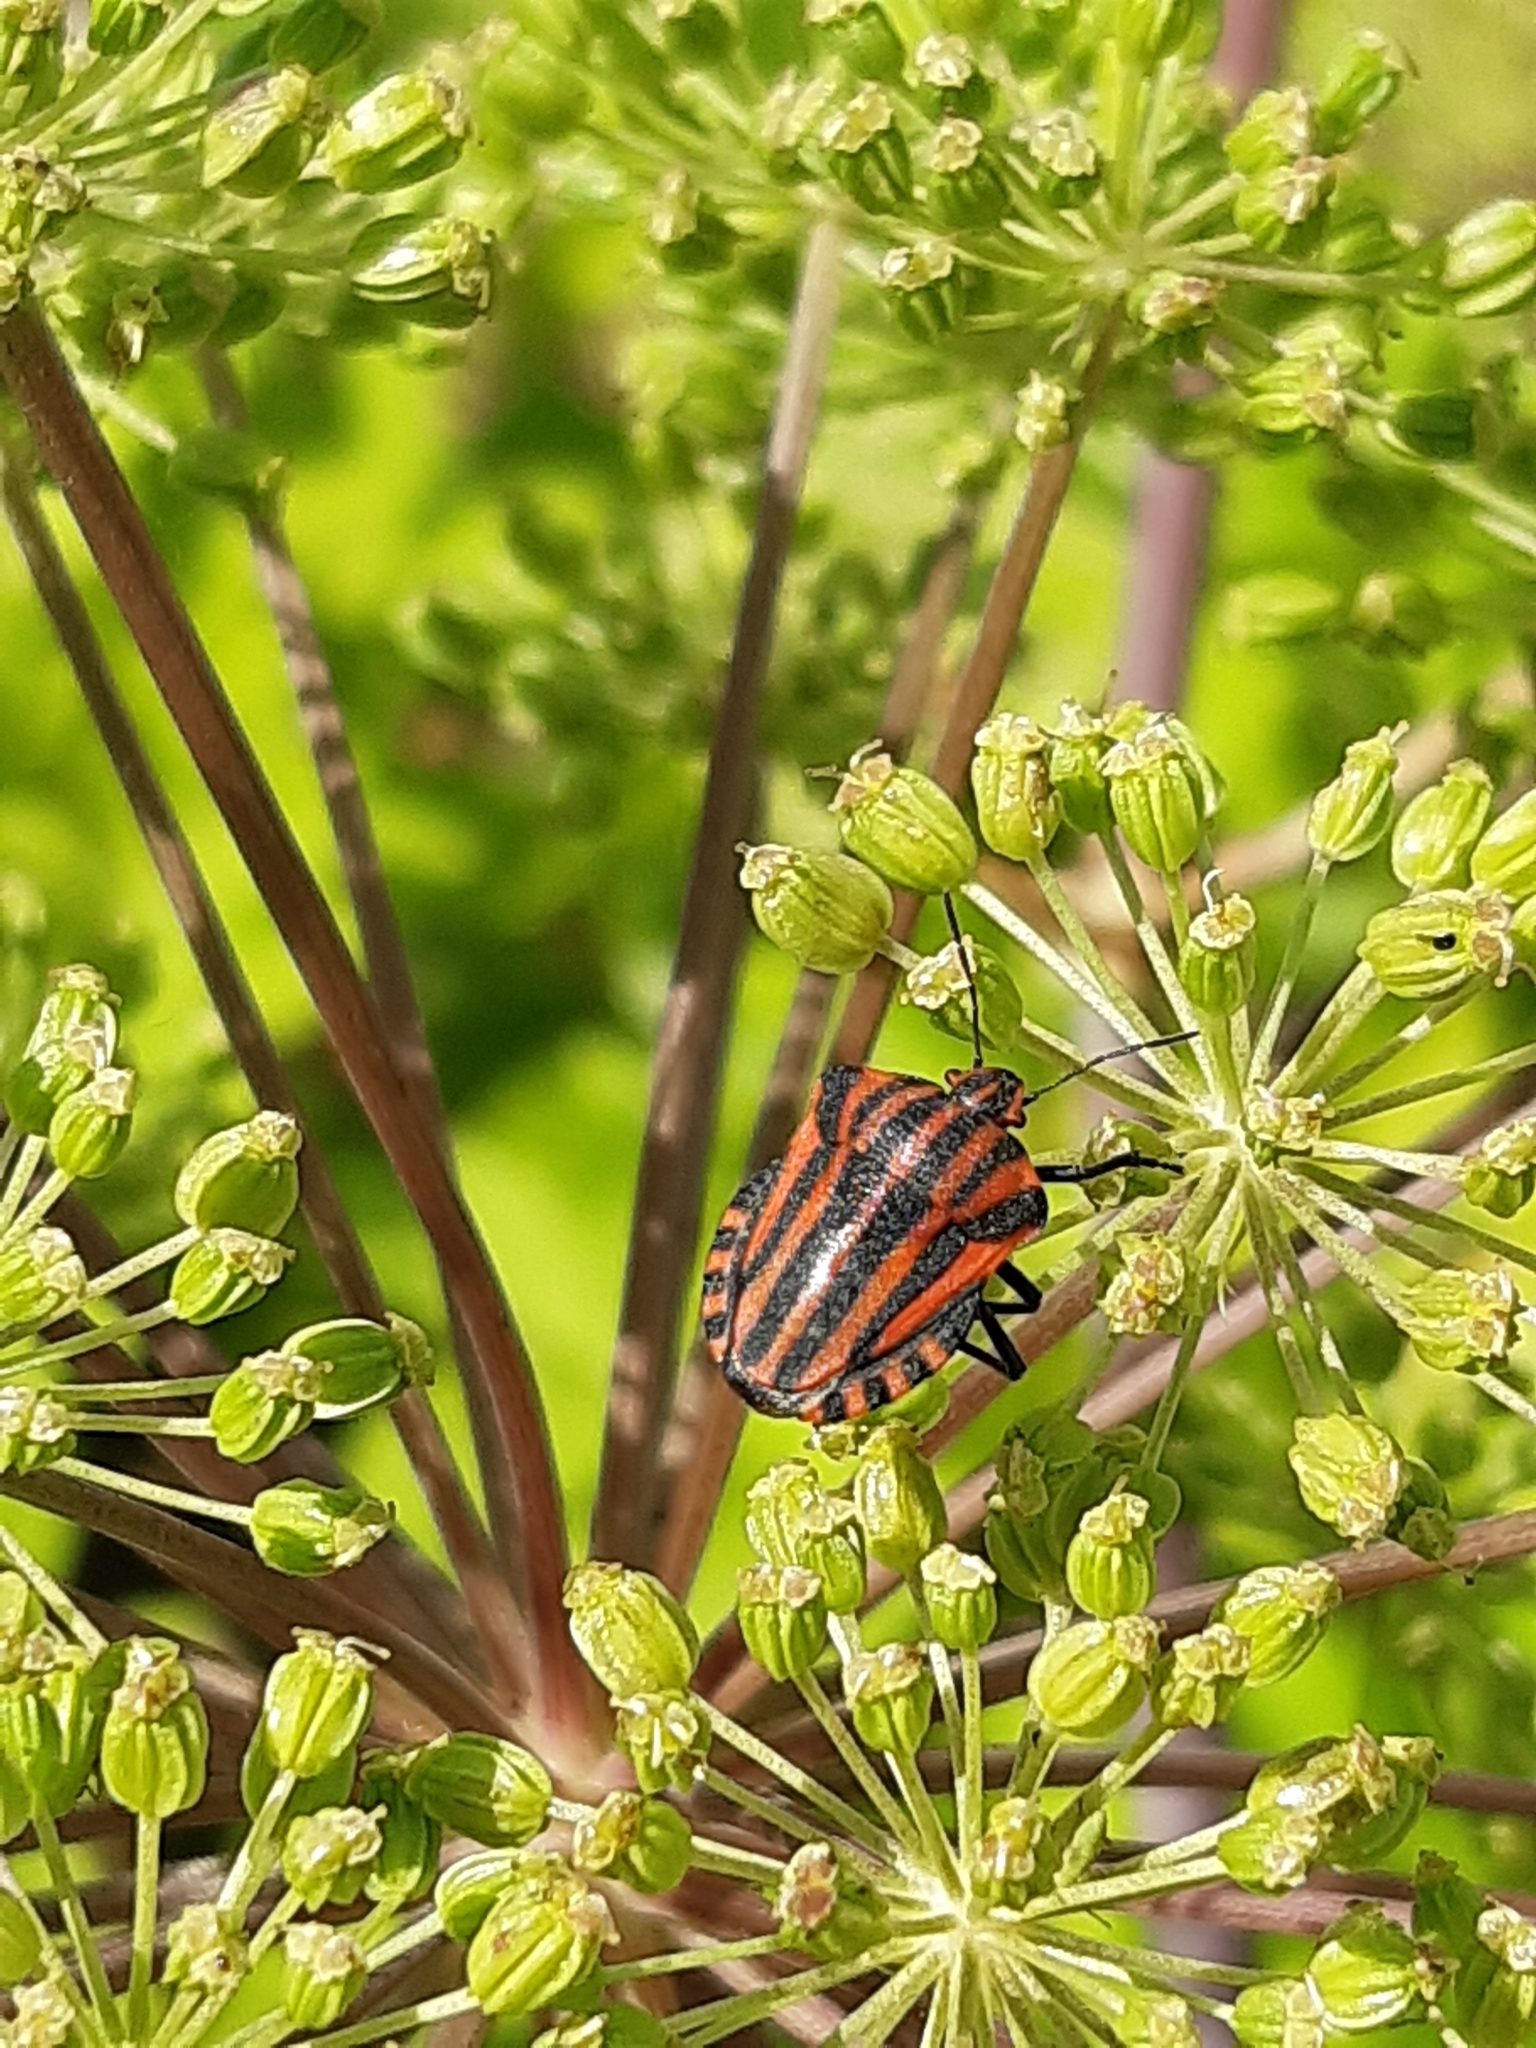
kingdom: Animalia
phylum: Arthropoda
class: Insecta
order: Hemiptera
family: Pentatomidae
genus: Graphosoma
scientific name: Graphosoma italicum
